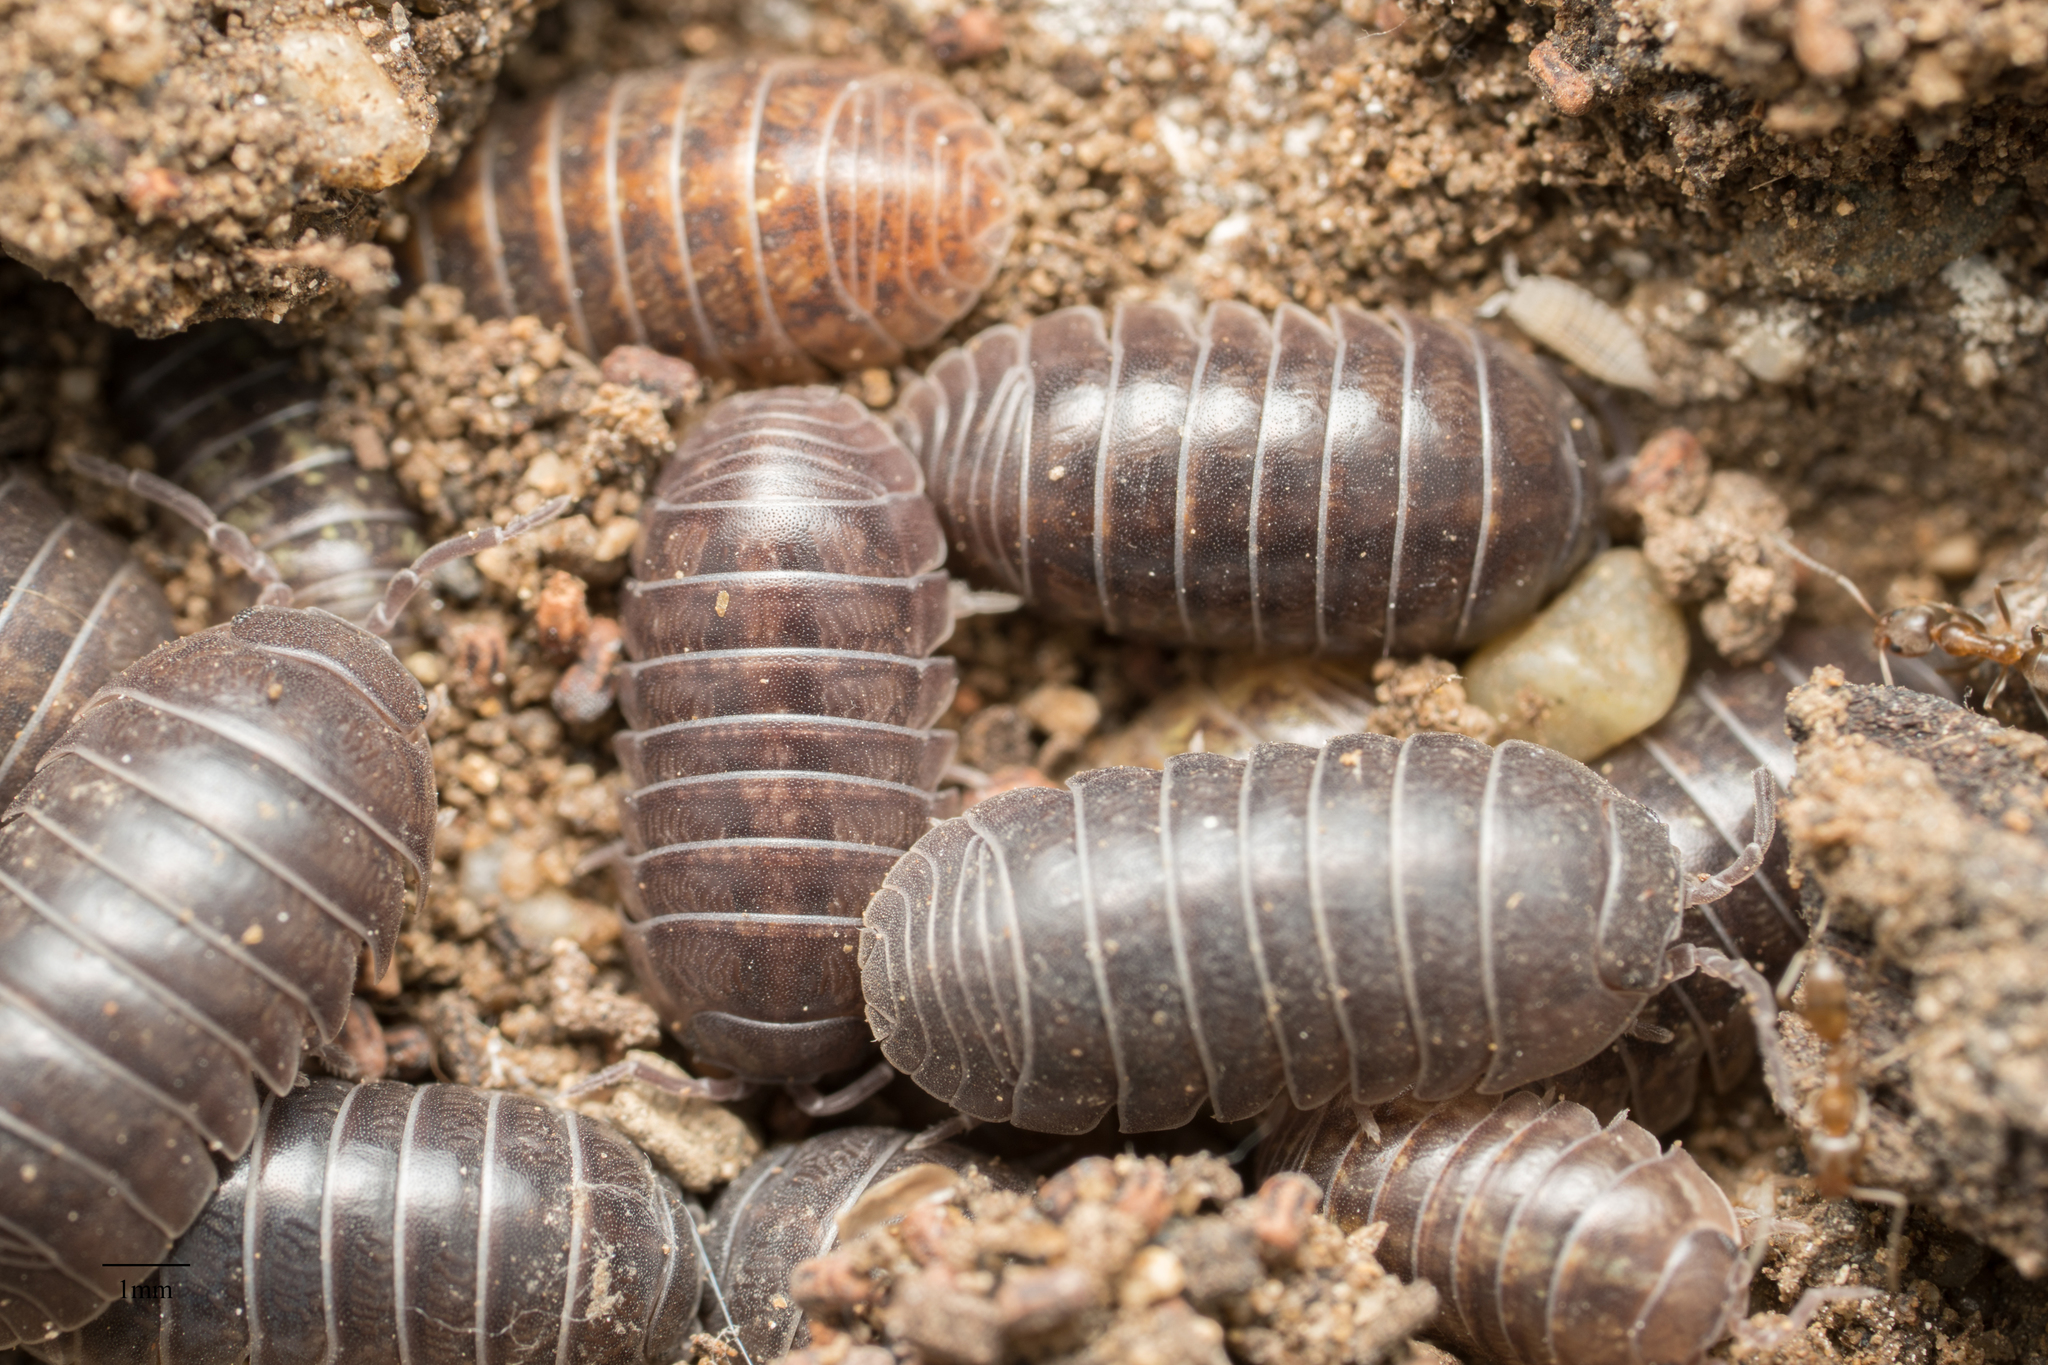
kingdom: Animalia
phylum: Arthropoda
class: Malacostraca
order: Isopoda
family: Armadillidiidae
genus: Armadillidium
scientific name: Armadillidium vulgare
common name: Common pill woodlouse
